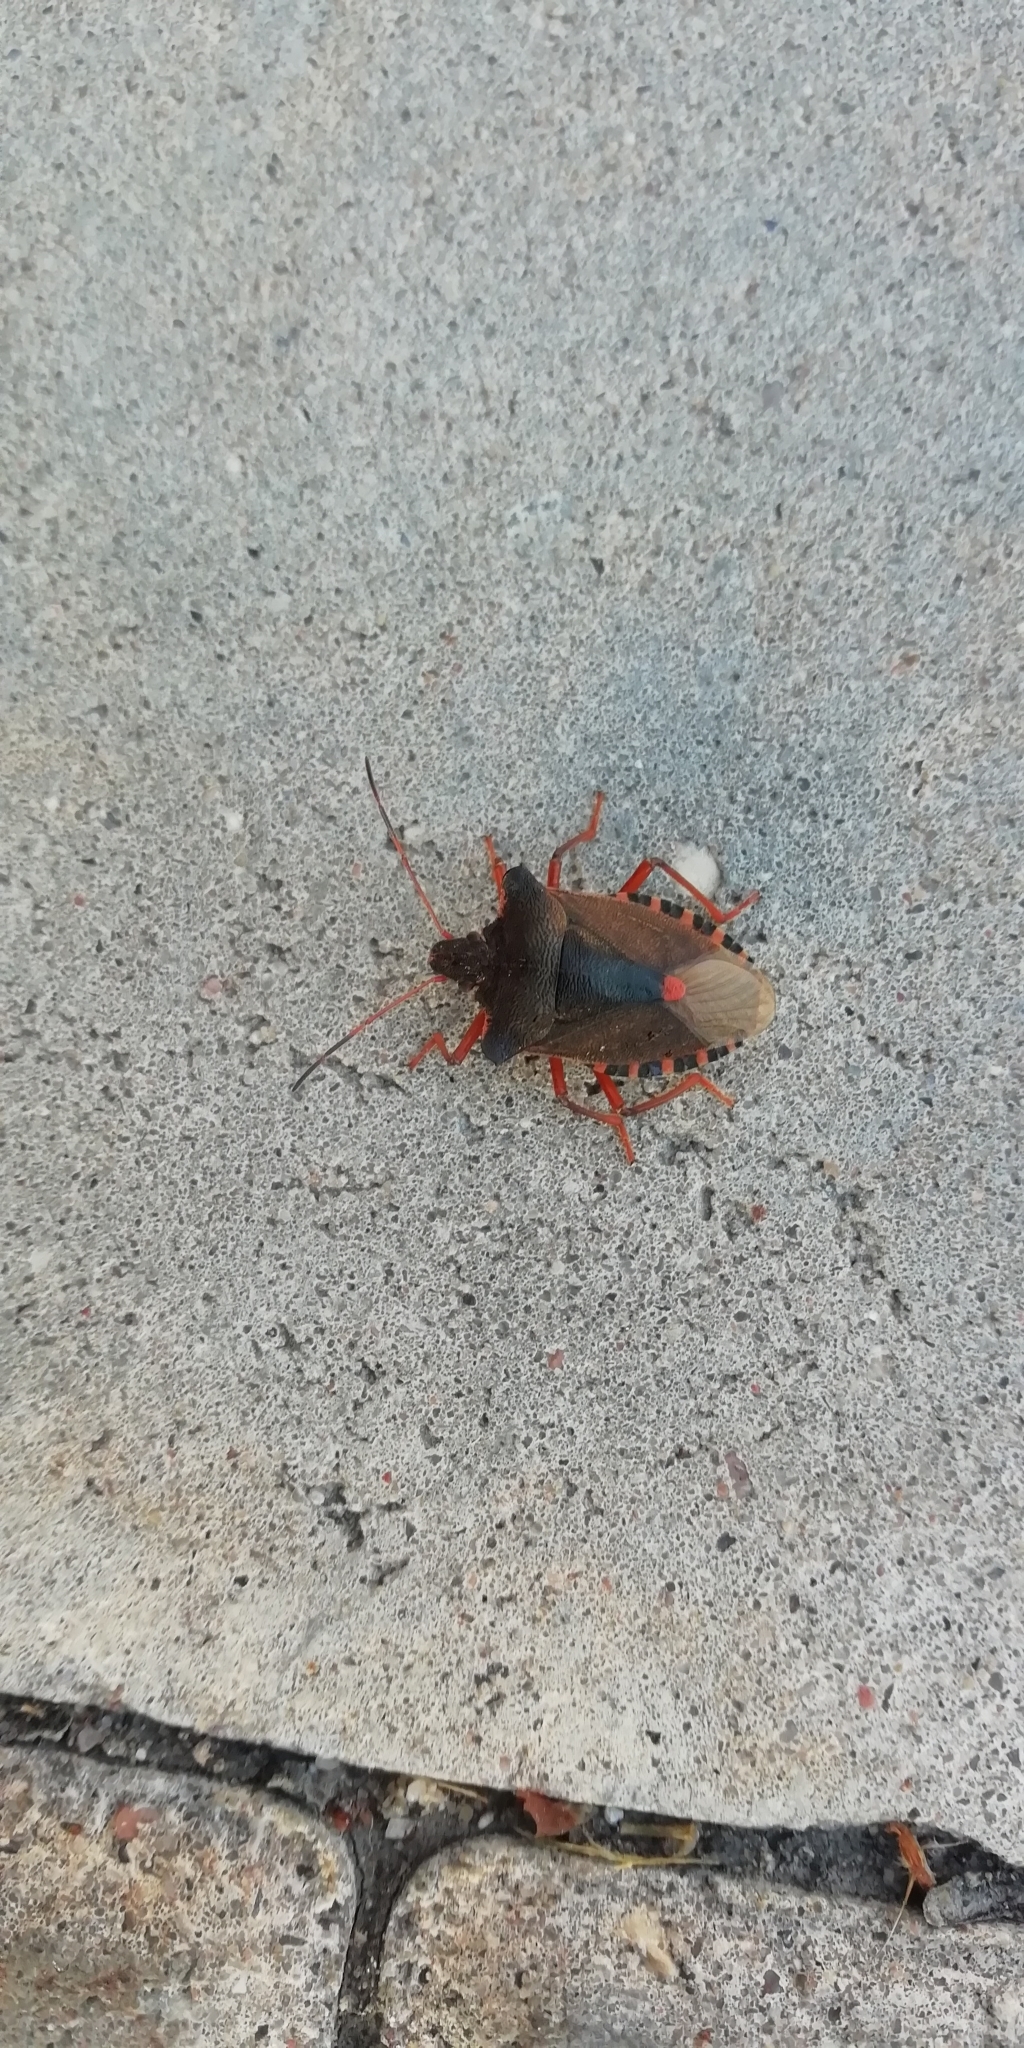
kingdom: Animalia
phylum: Arthropoda
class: Insecta
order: Hemiptera
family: Pentatomidae
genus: Pentatoma
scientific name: Pentatoma rufipes
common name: Forest bug
